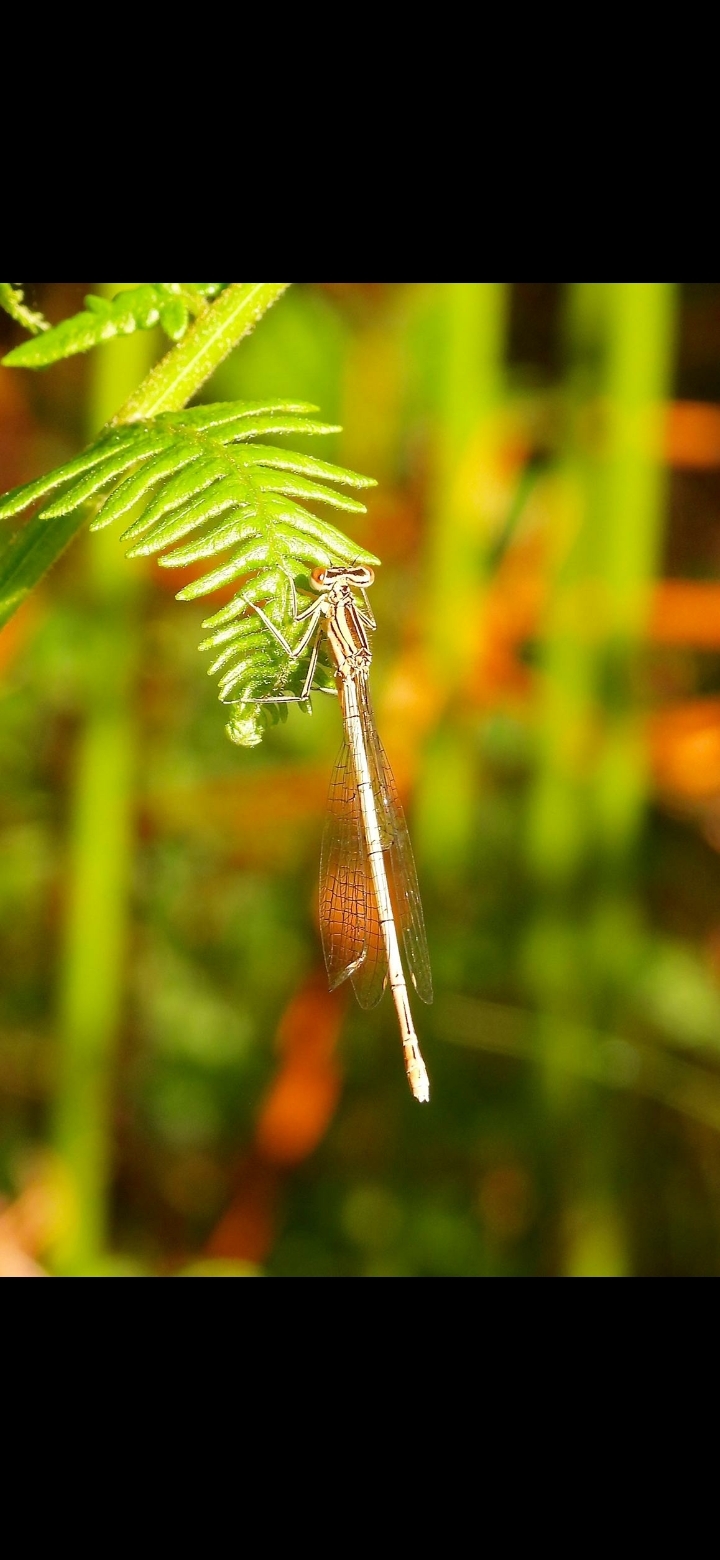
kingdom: Animalia
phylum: Arthropoda
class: Insecta
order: Odonata
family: Platycnemididae
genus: Platycnemis
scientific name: Platycnemis pennipes
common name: White-legged damselfly
